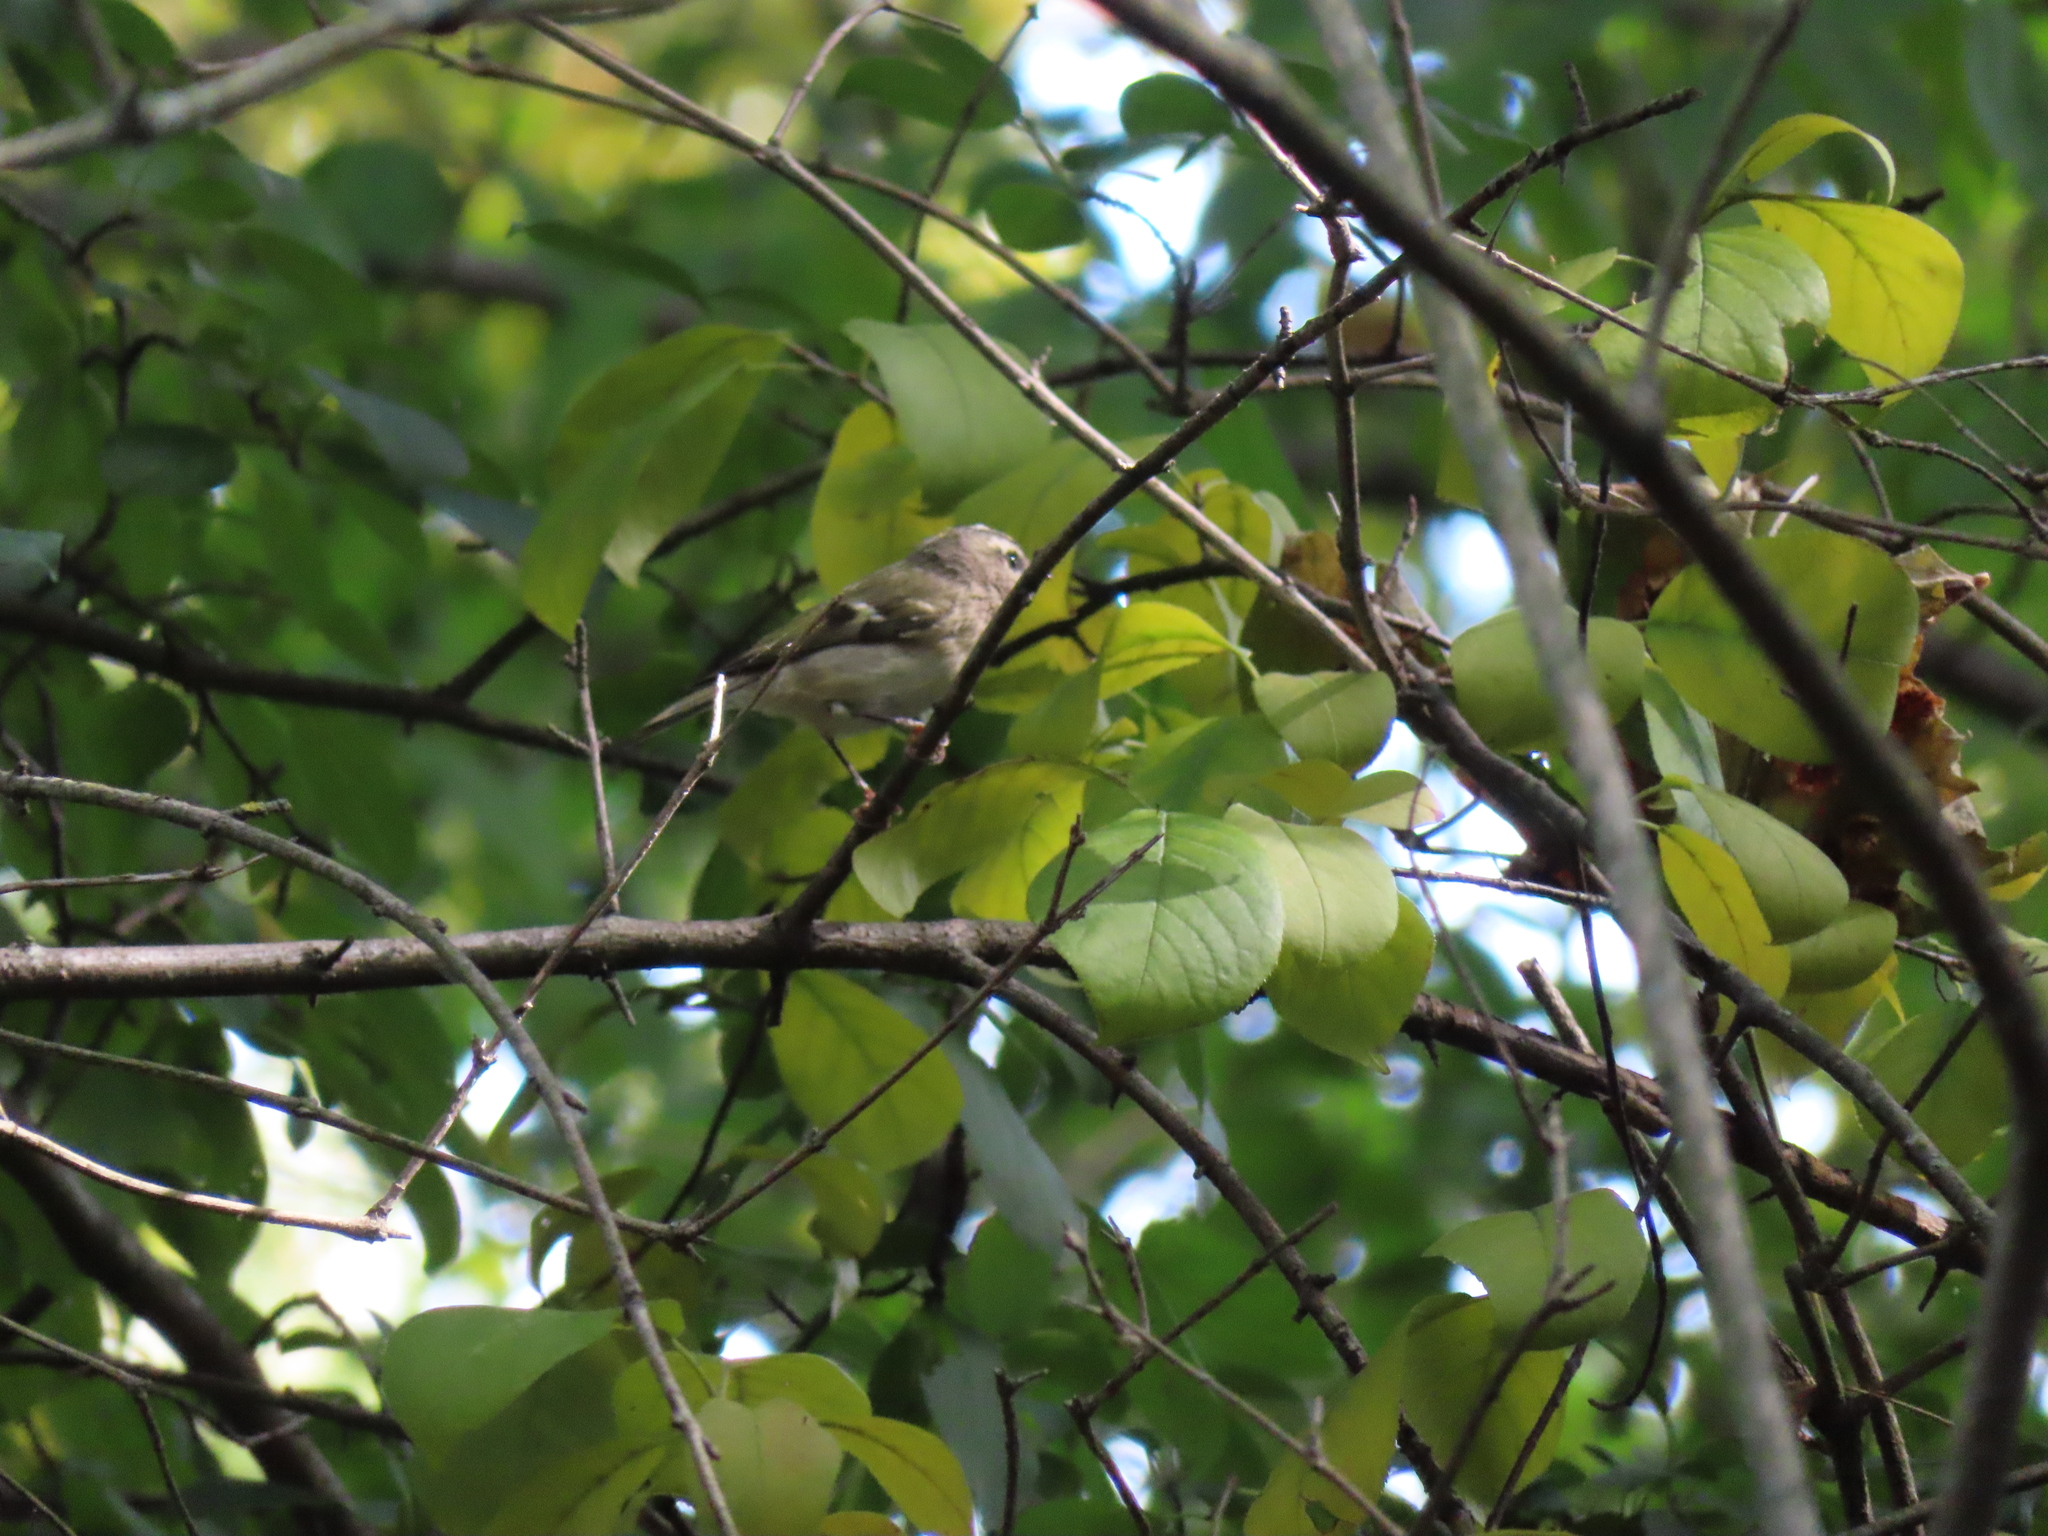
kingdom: Animalia
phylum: Chordata
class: Aves
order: Passeriformes
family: Regulidae
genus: Regulus
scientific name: Regulus satrapa
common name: Golden-crowned kinglet
